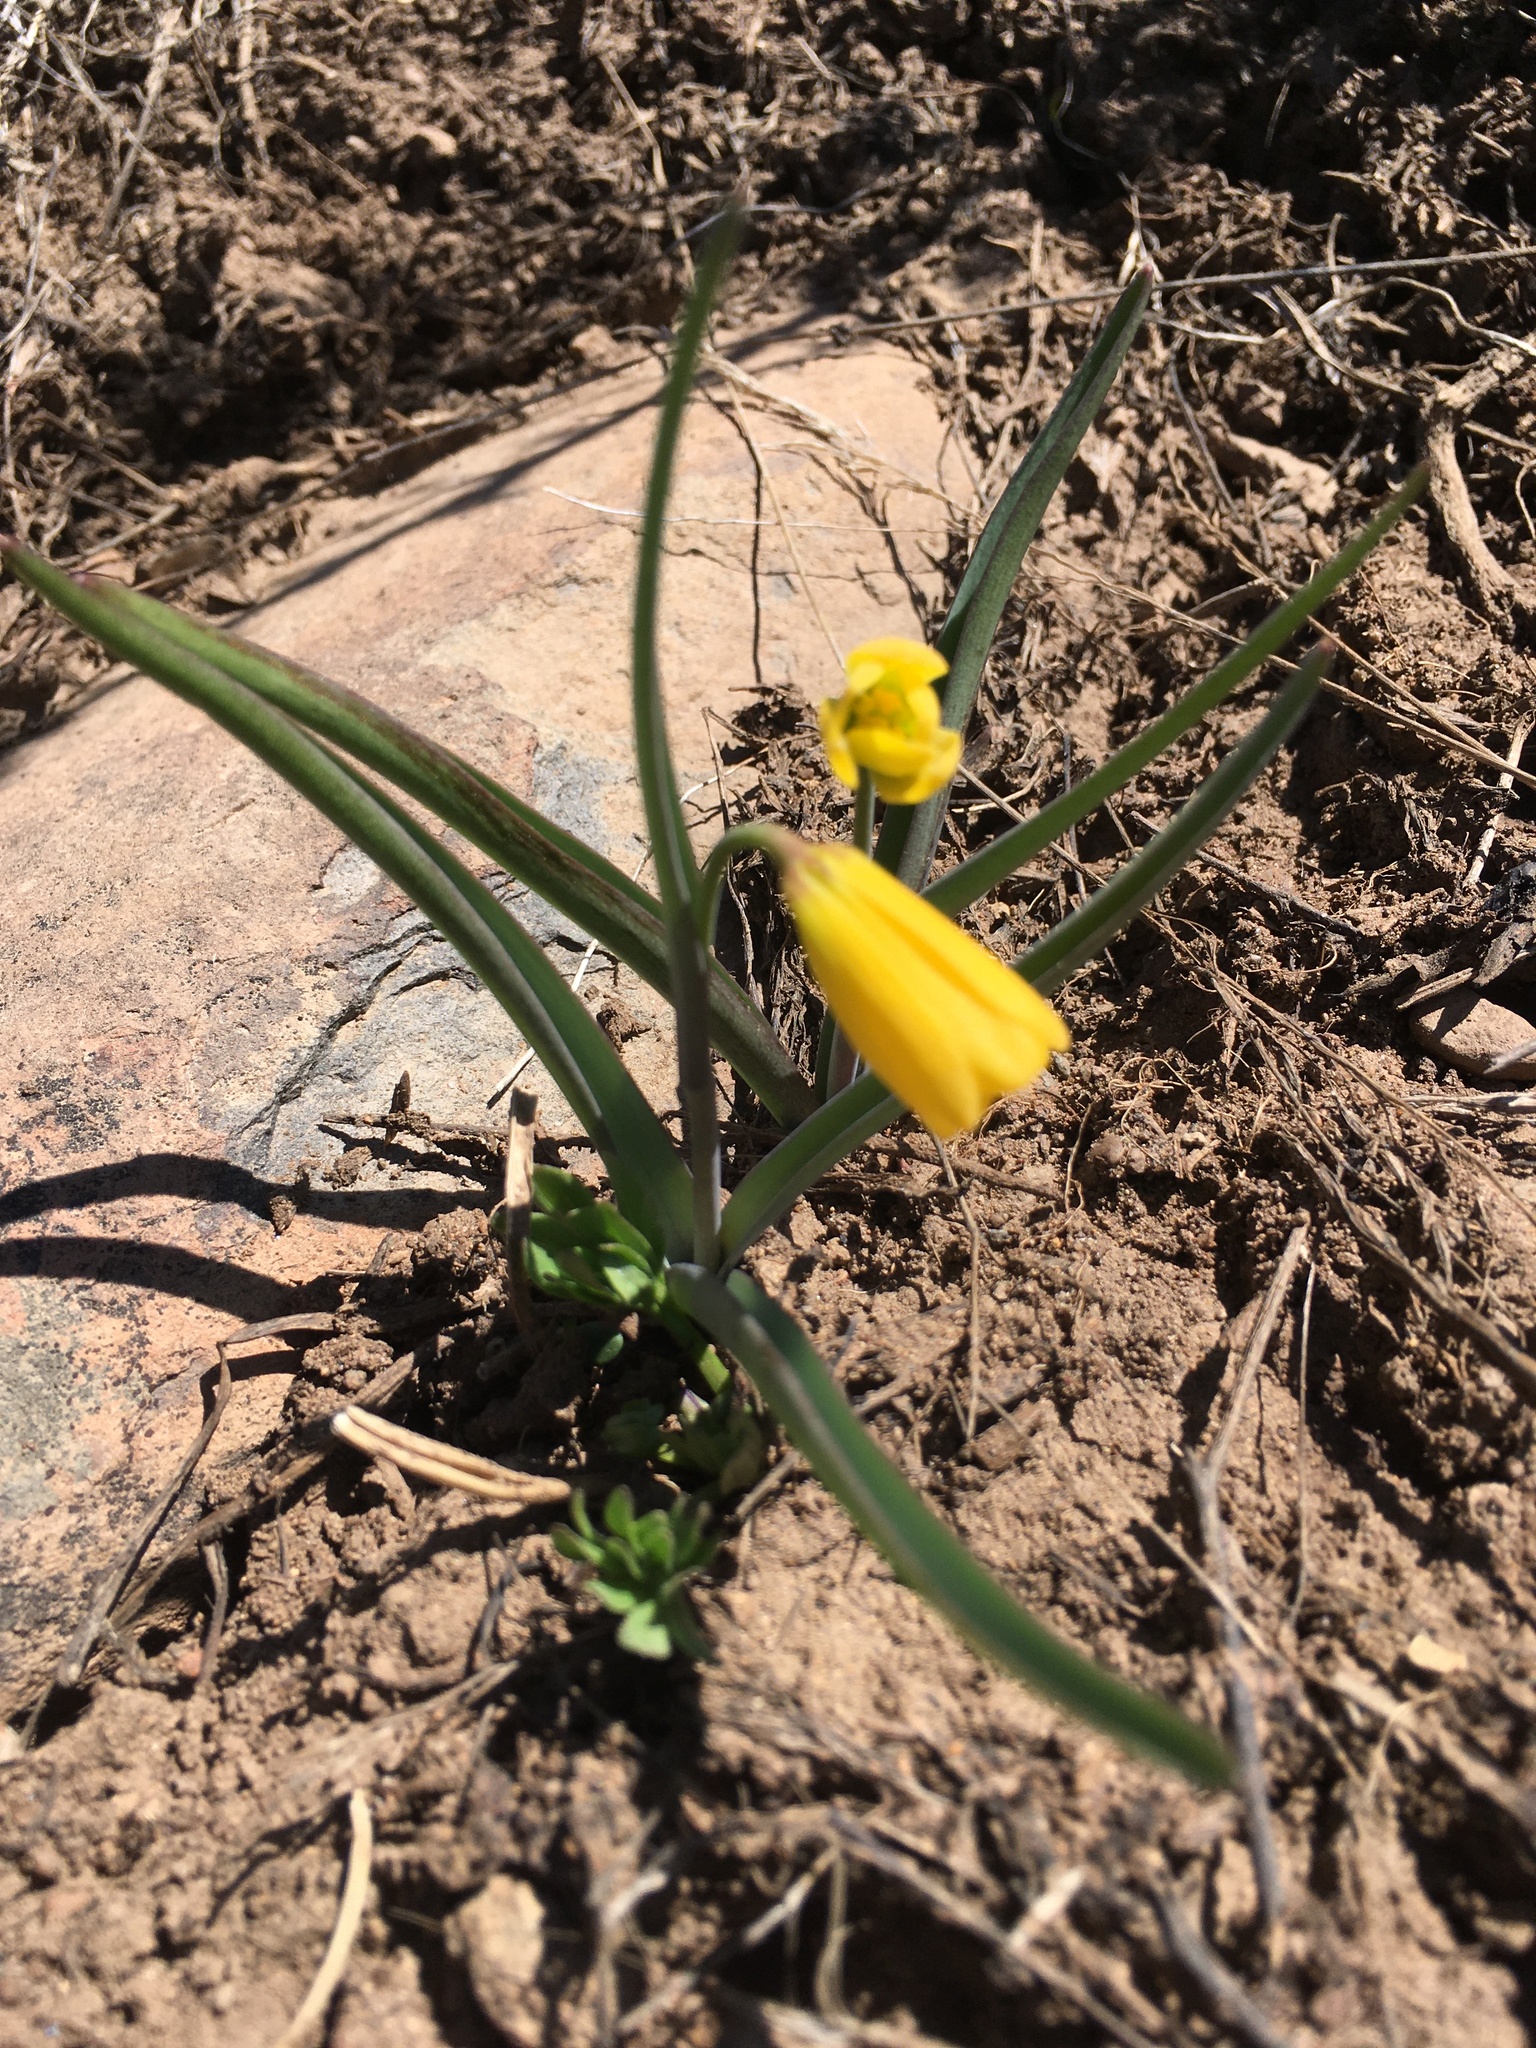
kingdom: Plantae
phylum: Tracheophyta
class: Liliopsida
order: Liliales
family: Liliaceae
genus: Fritillaria
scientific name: Fritillaria pudica
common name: Yellow fritillary
